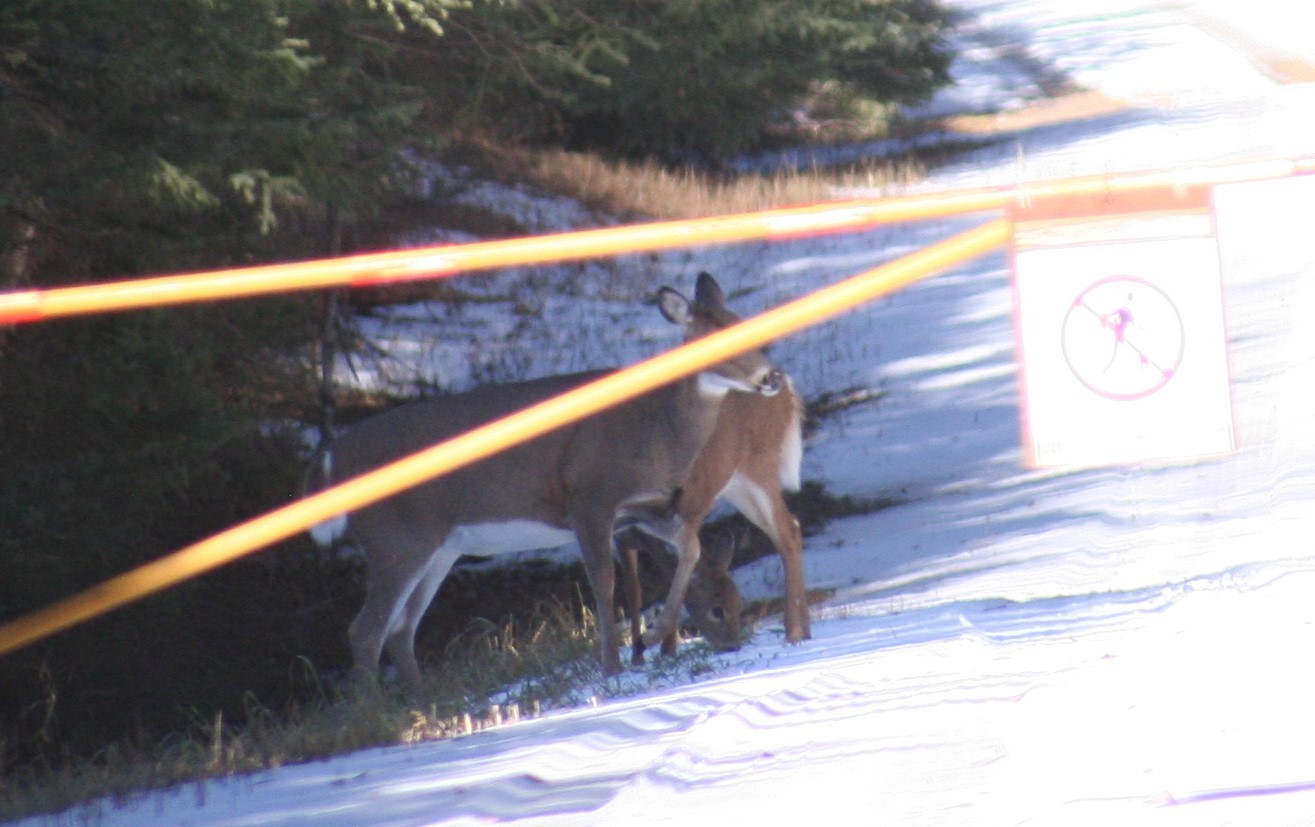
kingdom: Animalia
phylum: Chordata
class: Mammalia
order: Artiodactyla
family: Cervidae
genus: Odocoileus
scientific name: Odocoileus virginianus
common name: White-tailed deer
